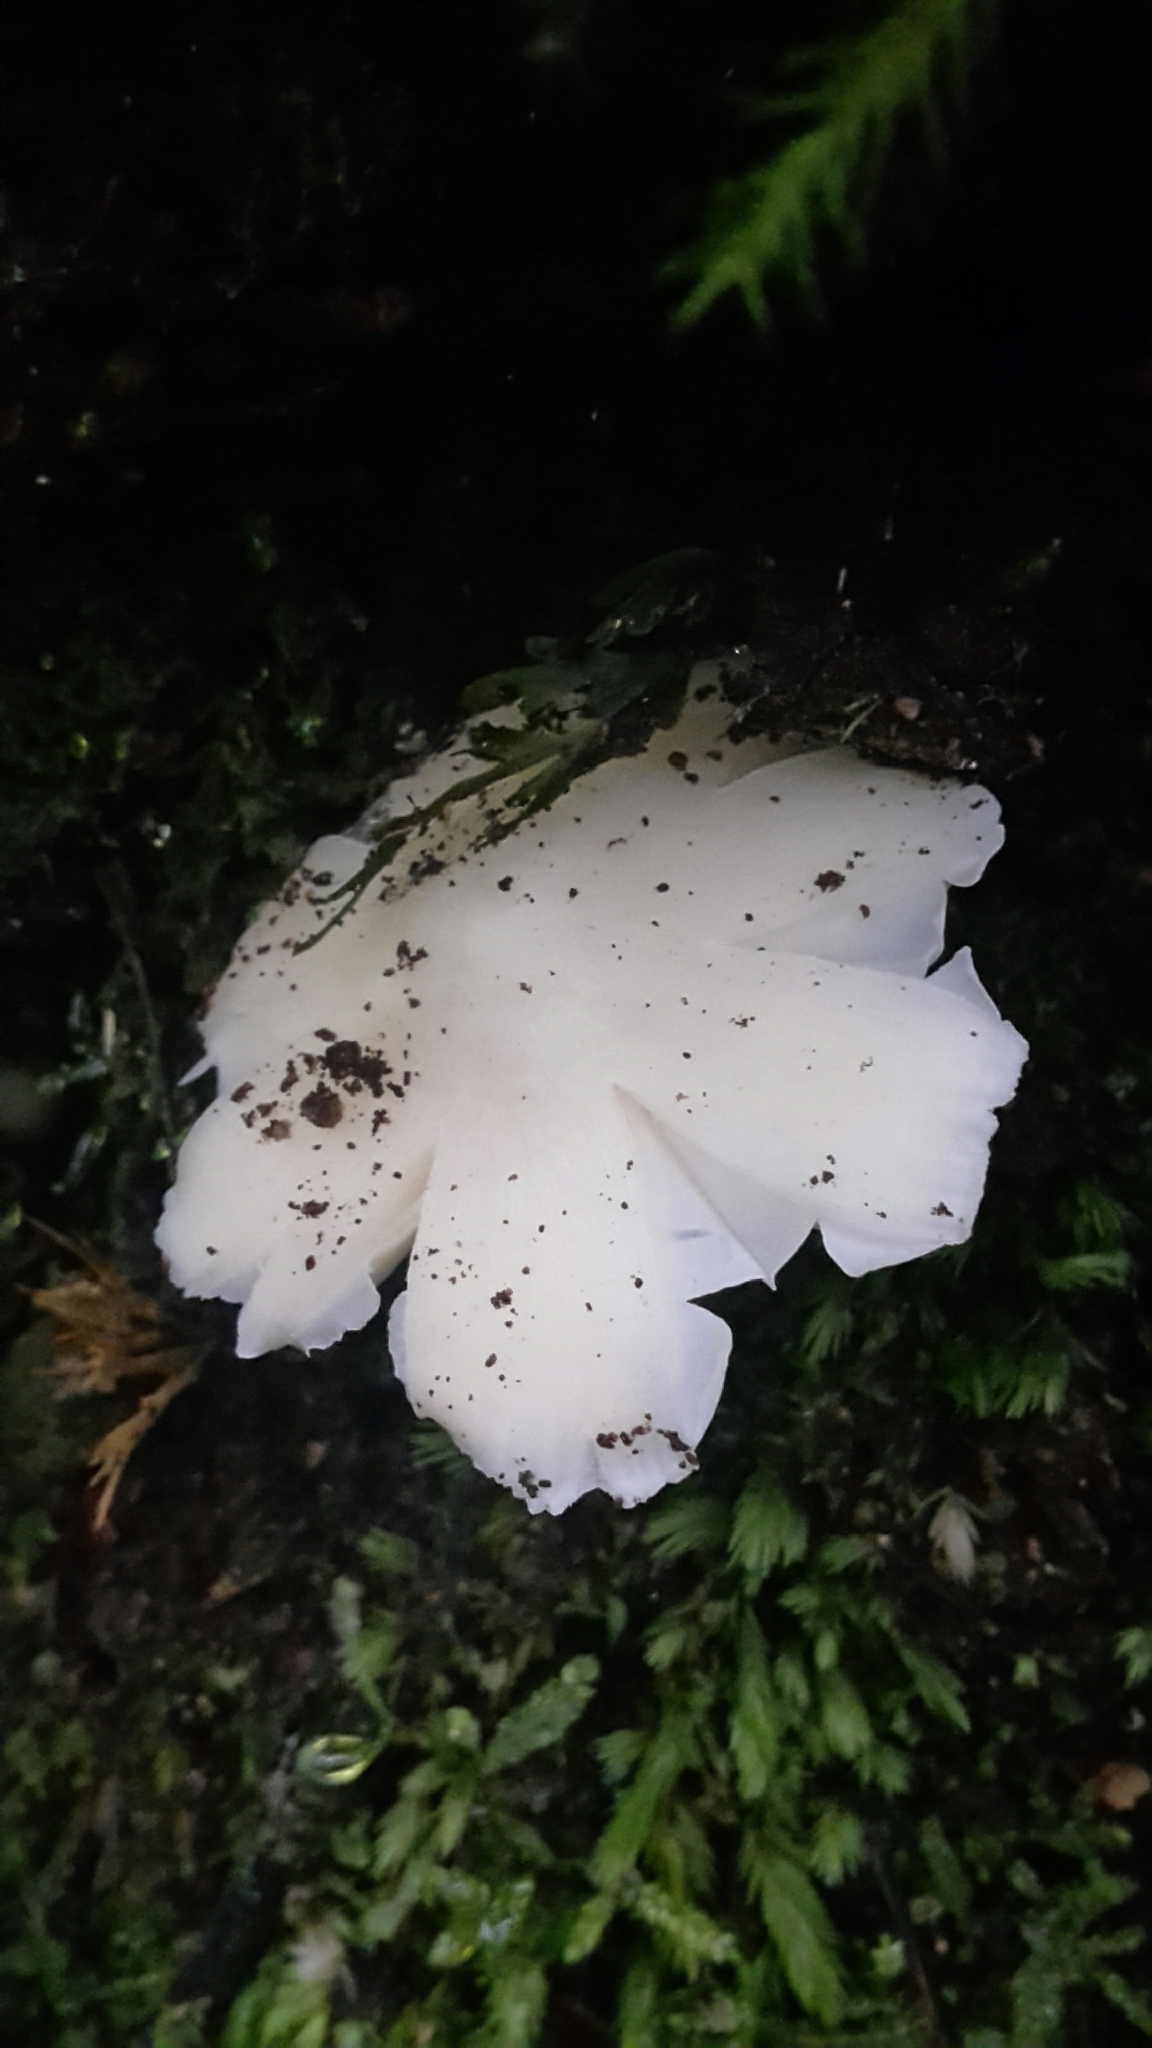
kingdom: Fungi
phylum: Basidiomycota
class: Agaricomycetes
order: Agaricales
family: Hygrophoraceae
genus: Humidicutis
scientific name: Humidicutis mavis
